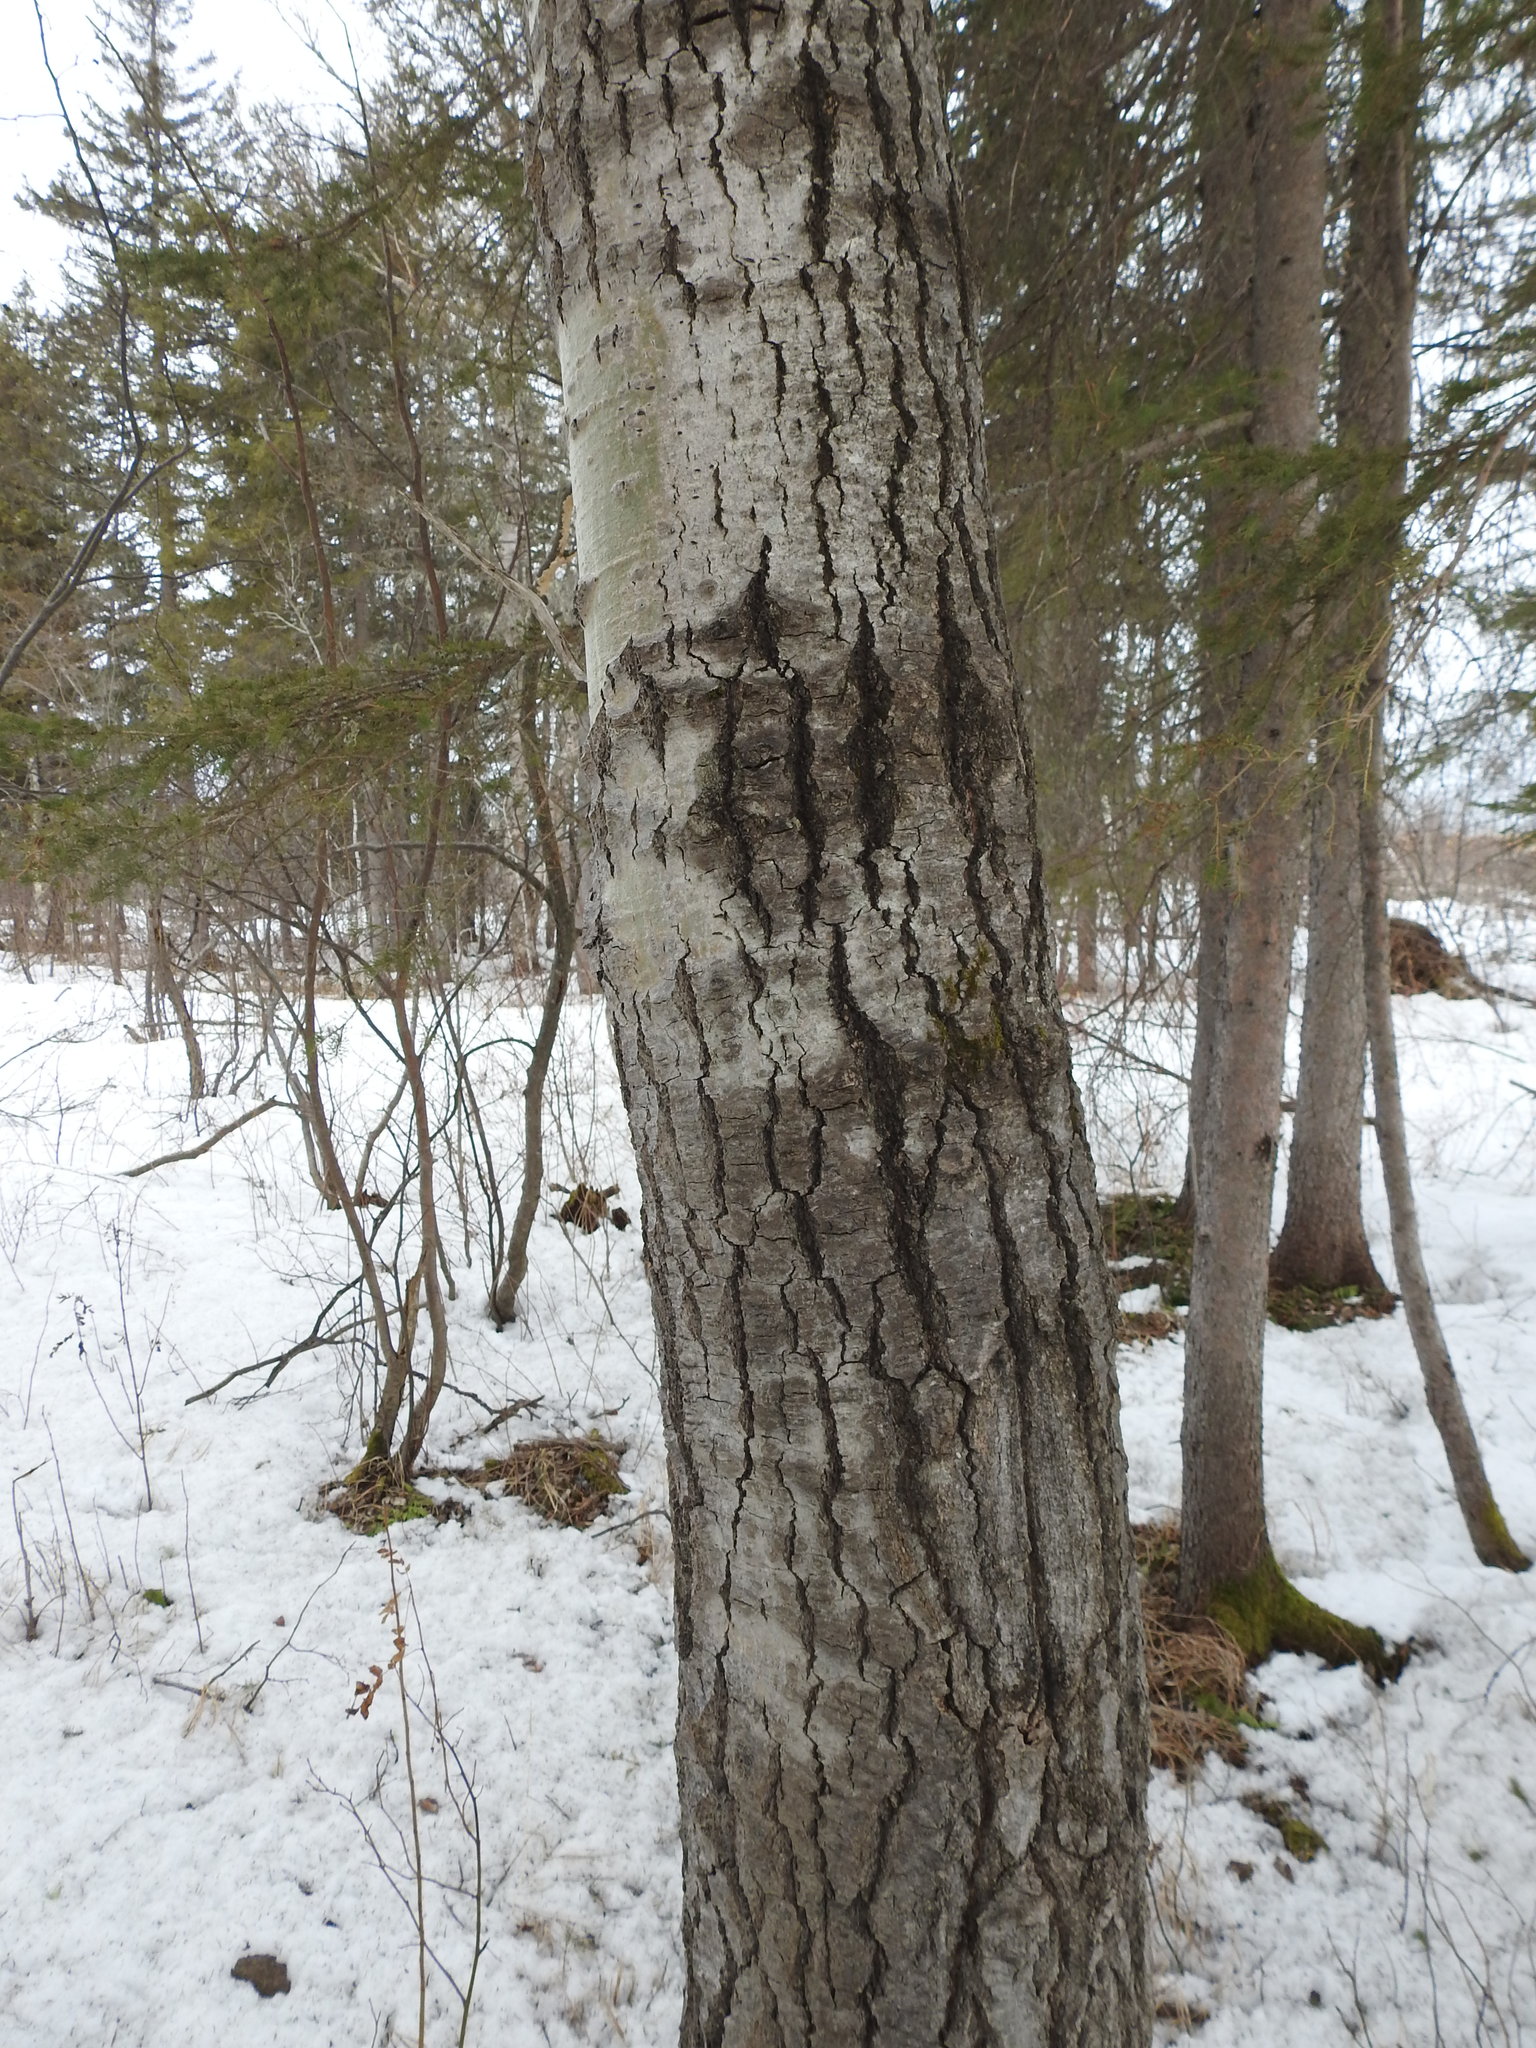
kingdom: Plantae
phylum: Tracheophyta
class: Magnoliopsida
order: Malpighiales
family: Salicaceae
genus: Populus
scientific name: Populus tremuloides
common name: Quaking aspen
